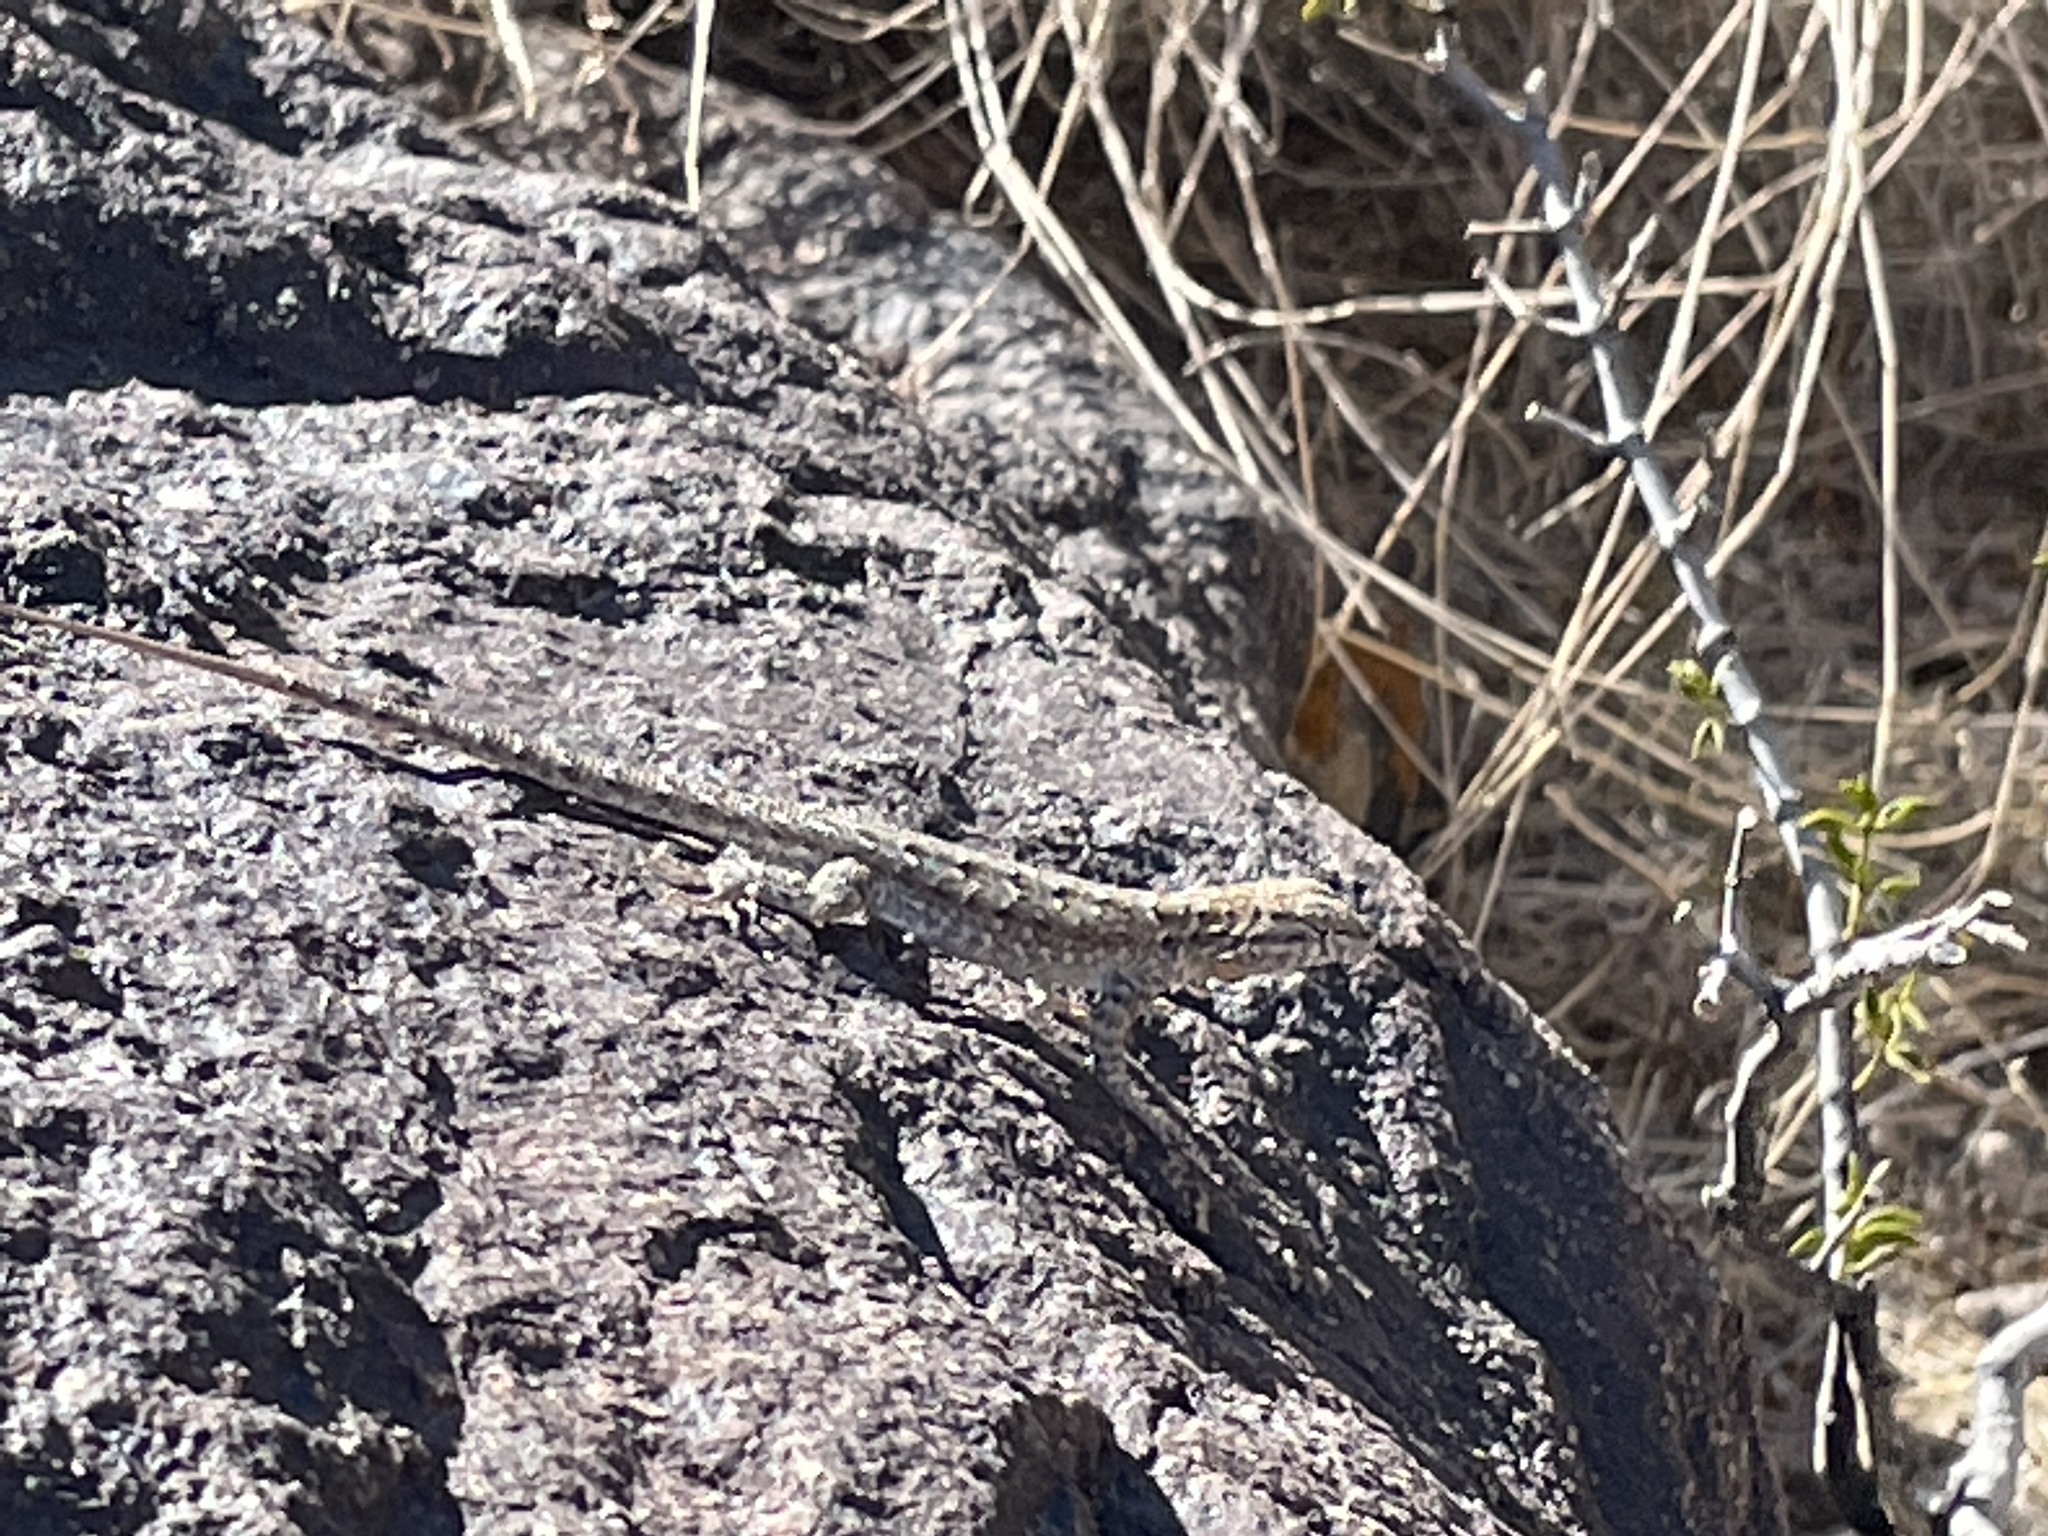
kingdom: Animalia
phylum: Chordata
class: Squamata
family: Phrynosomatidae
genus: Uta
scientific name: Uta stansburiana
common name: Side-blotched lizard
